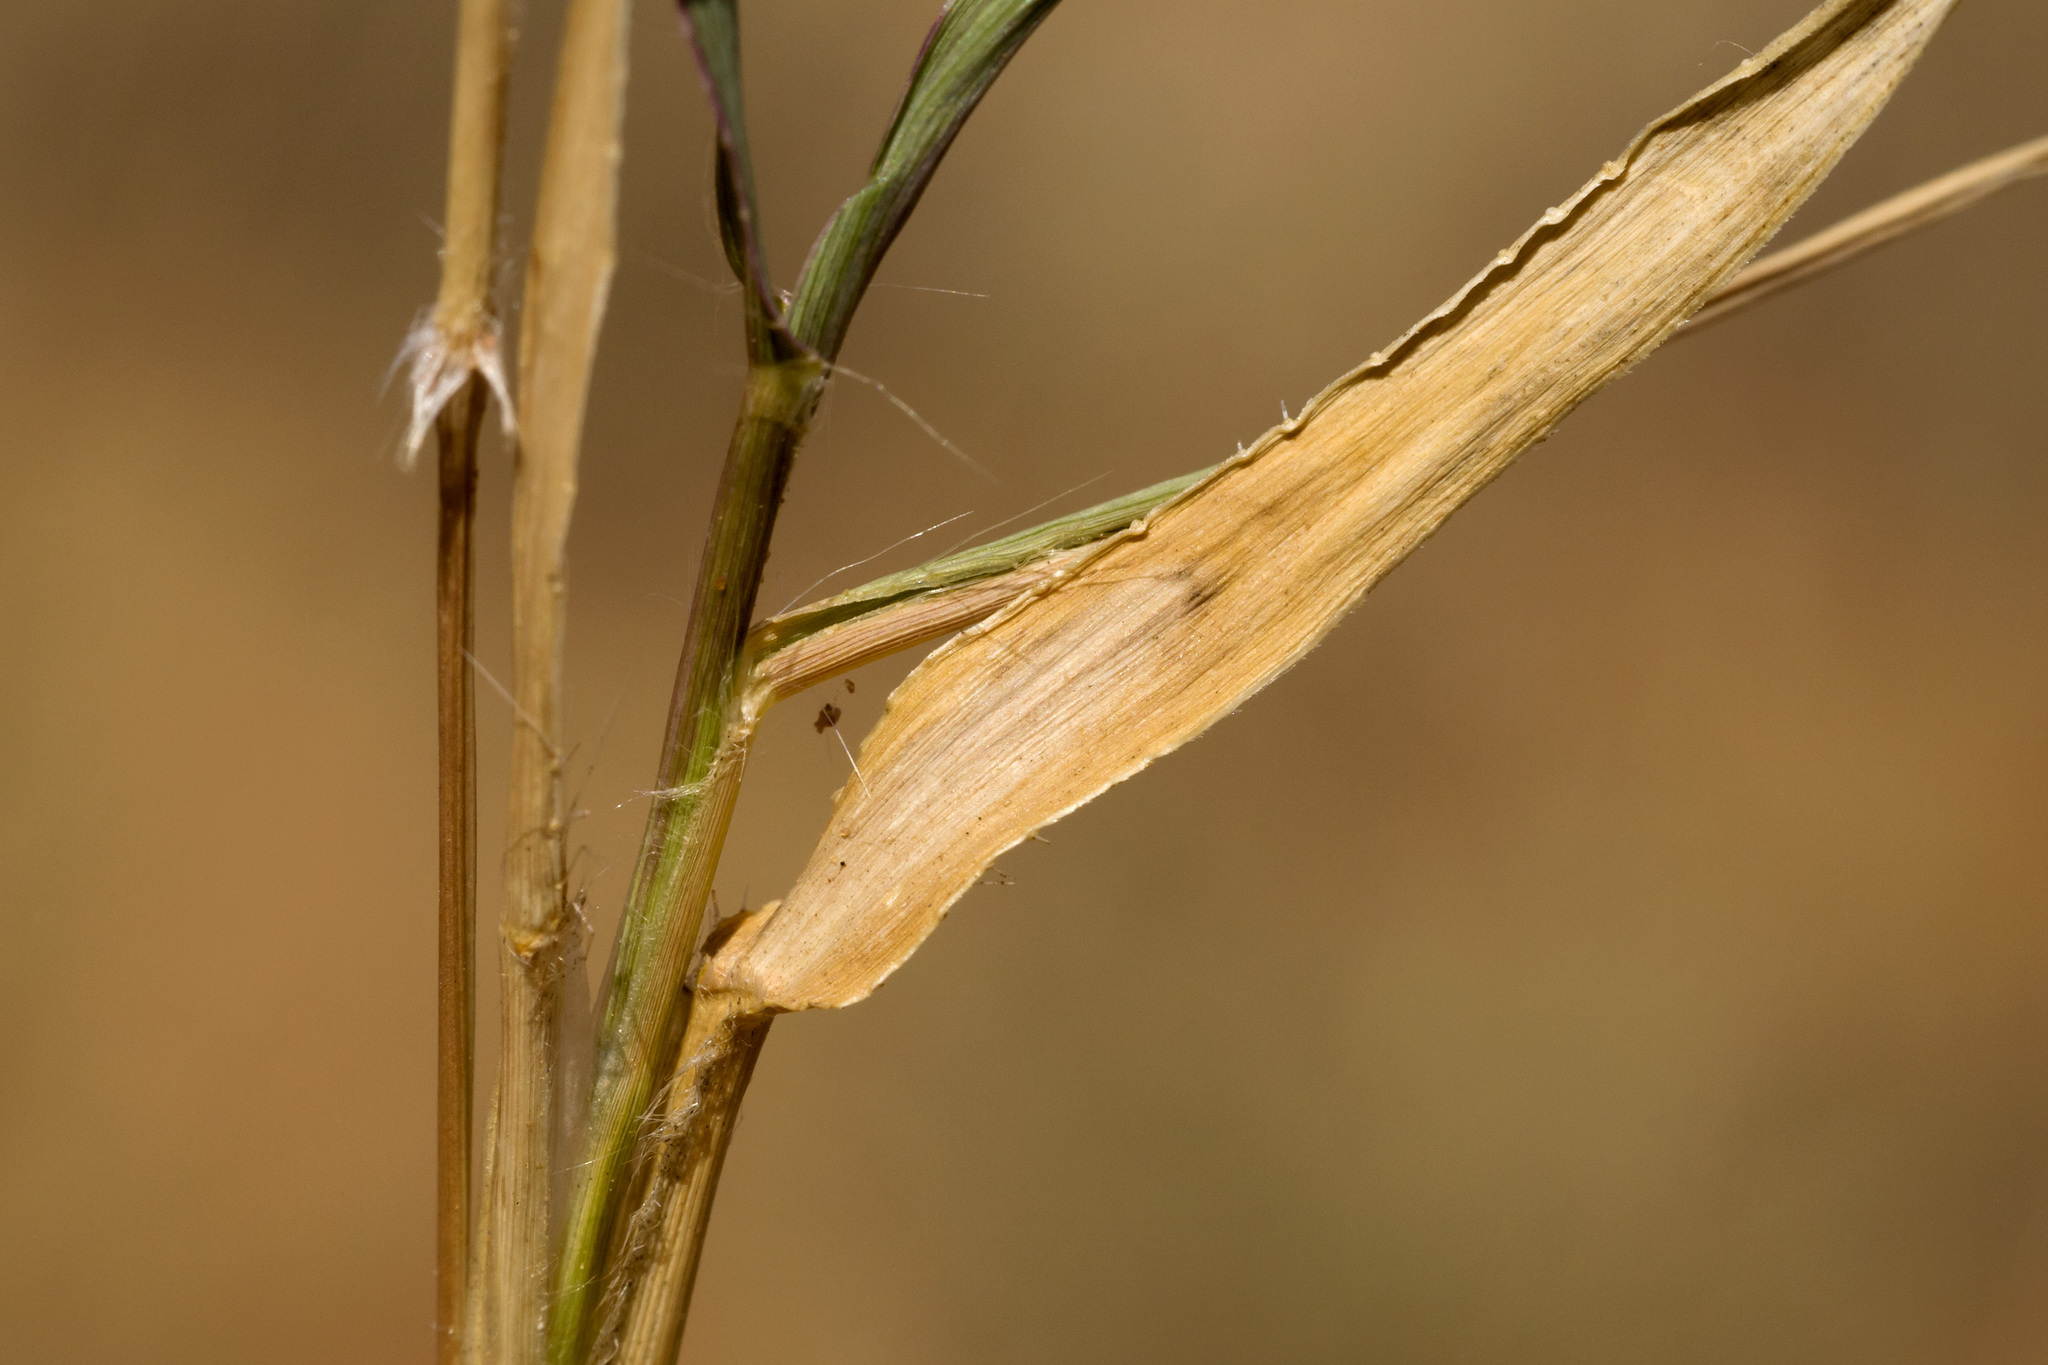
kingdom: Plantae
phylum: Tracheophyta
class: Liliopsida
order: Poales
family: Poaceae
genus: Urochloa
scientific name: Urochloa ciliatissima
